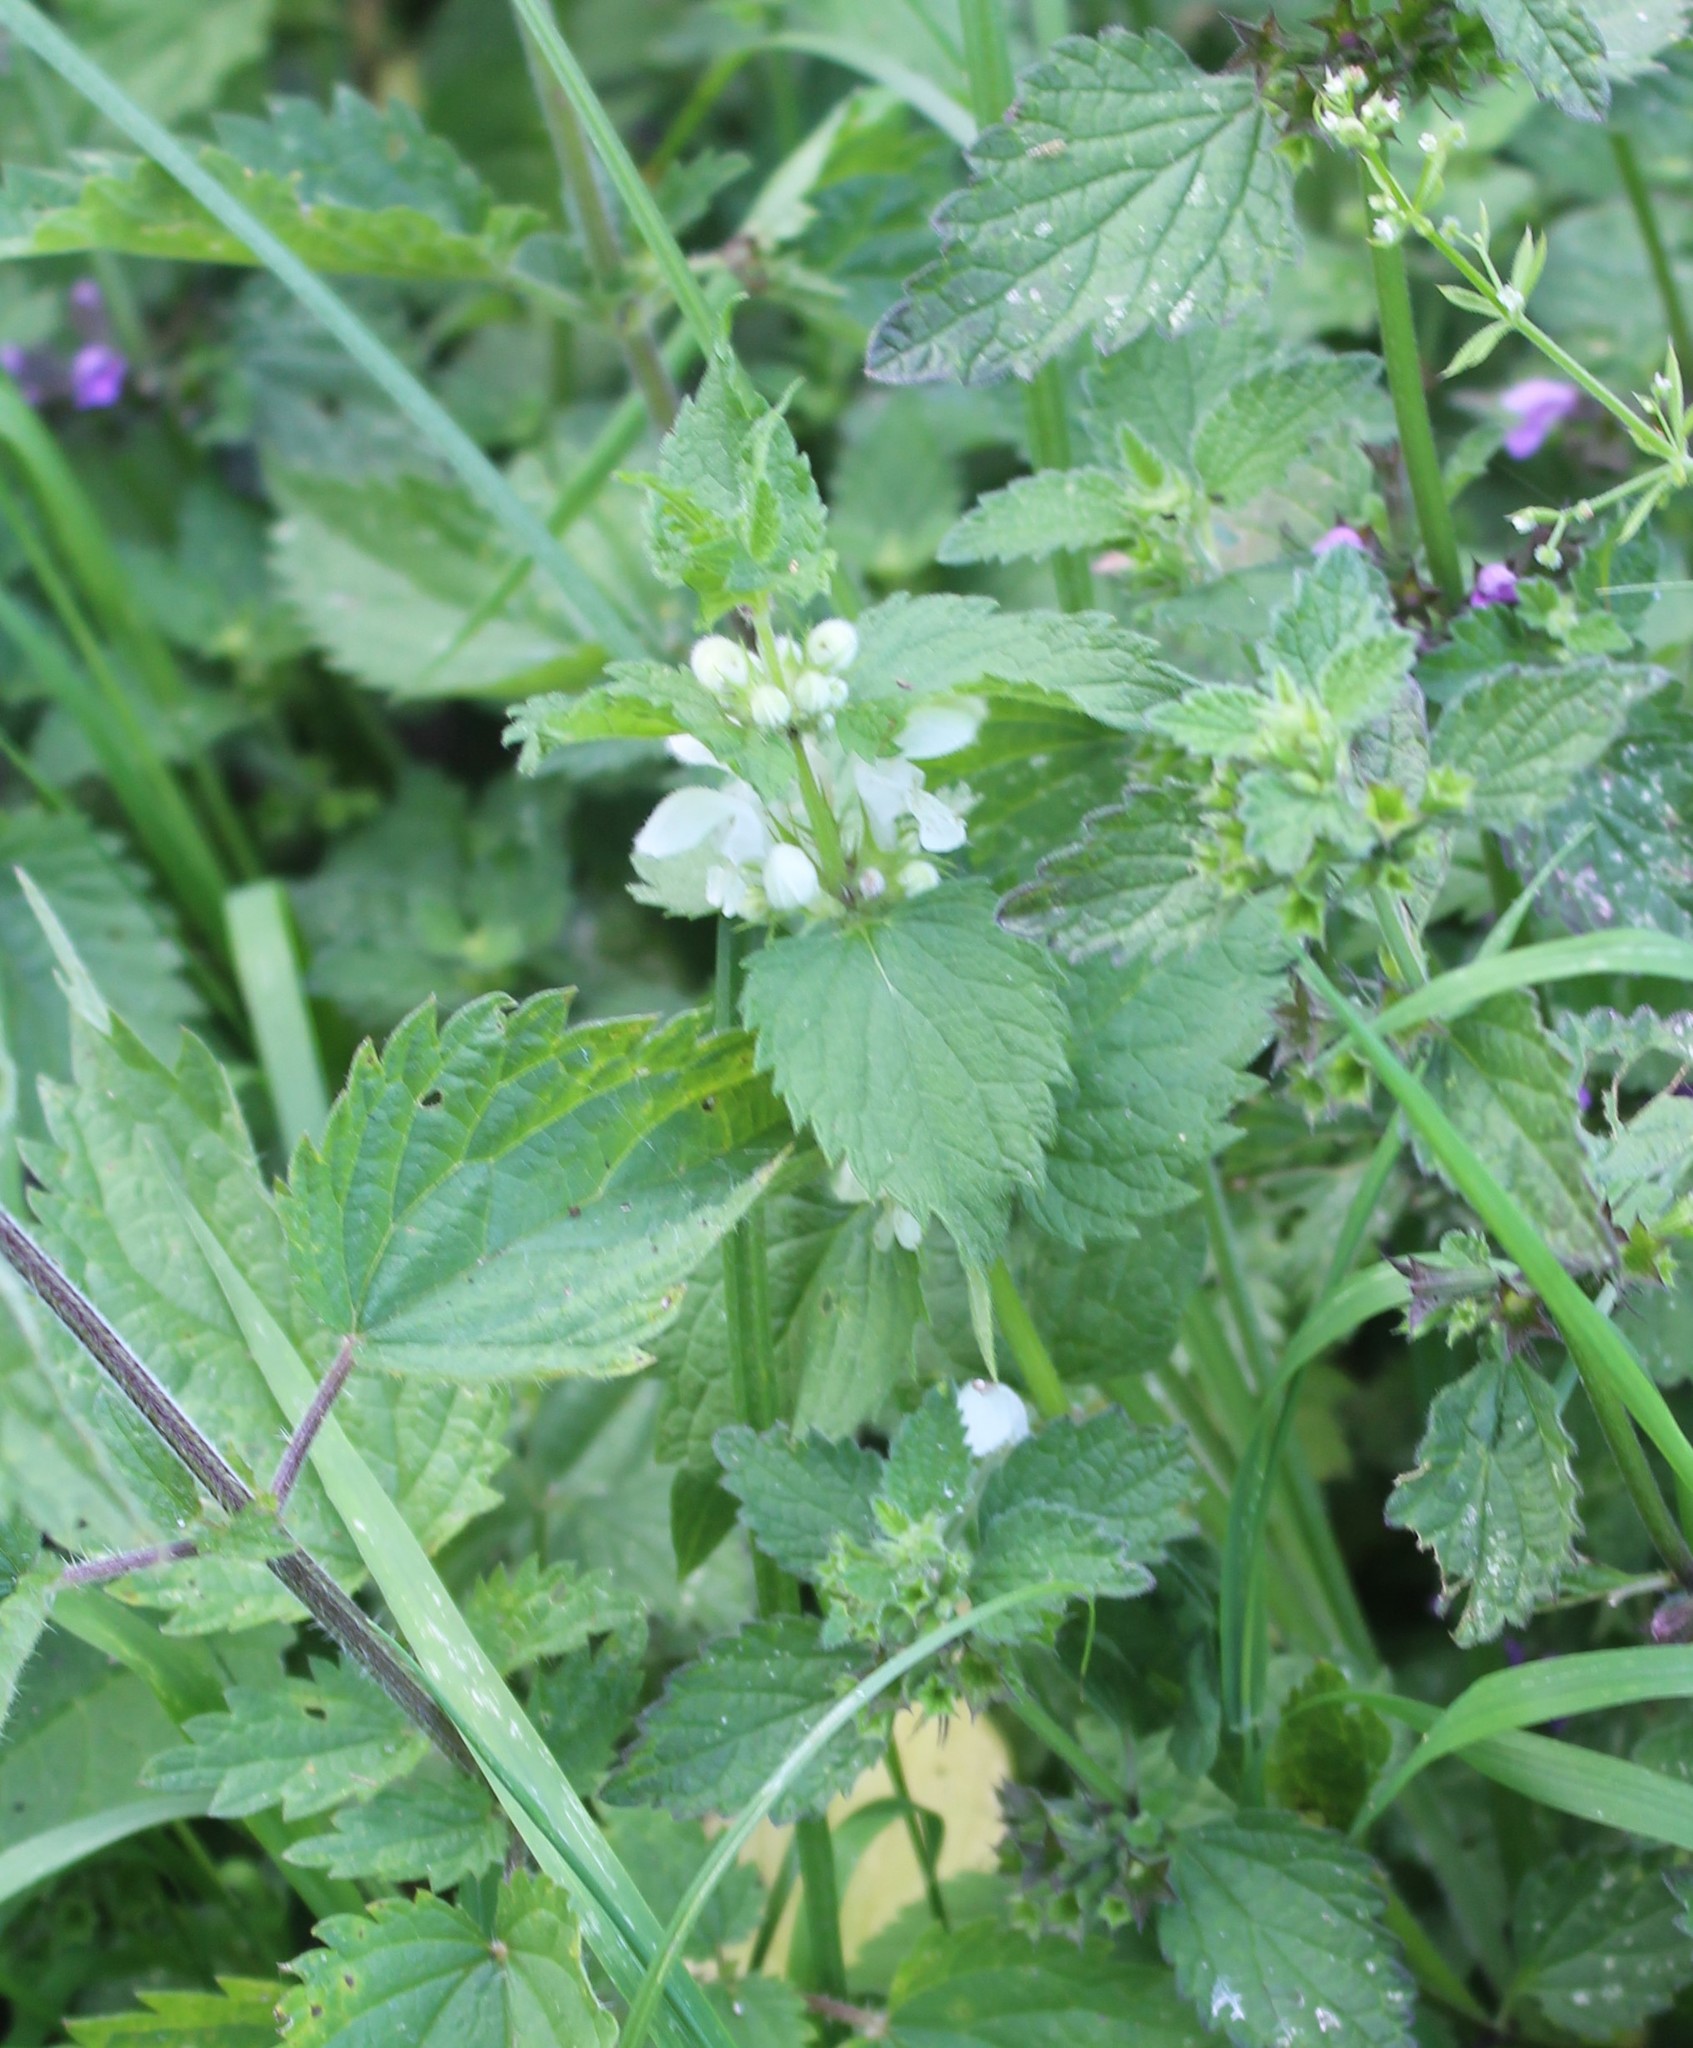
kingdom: Plantae
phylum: Tracheophyta
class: Magnoliopsida
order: Lamiales
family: Lamiaceae
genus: Lamium
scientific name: Lamium album
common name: White dead-nettle
